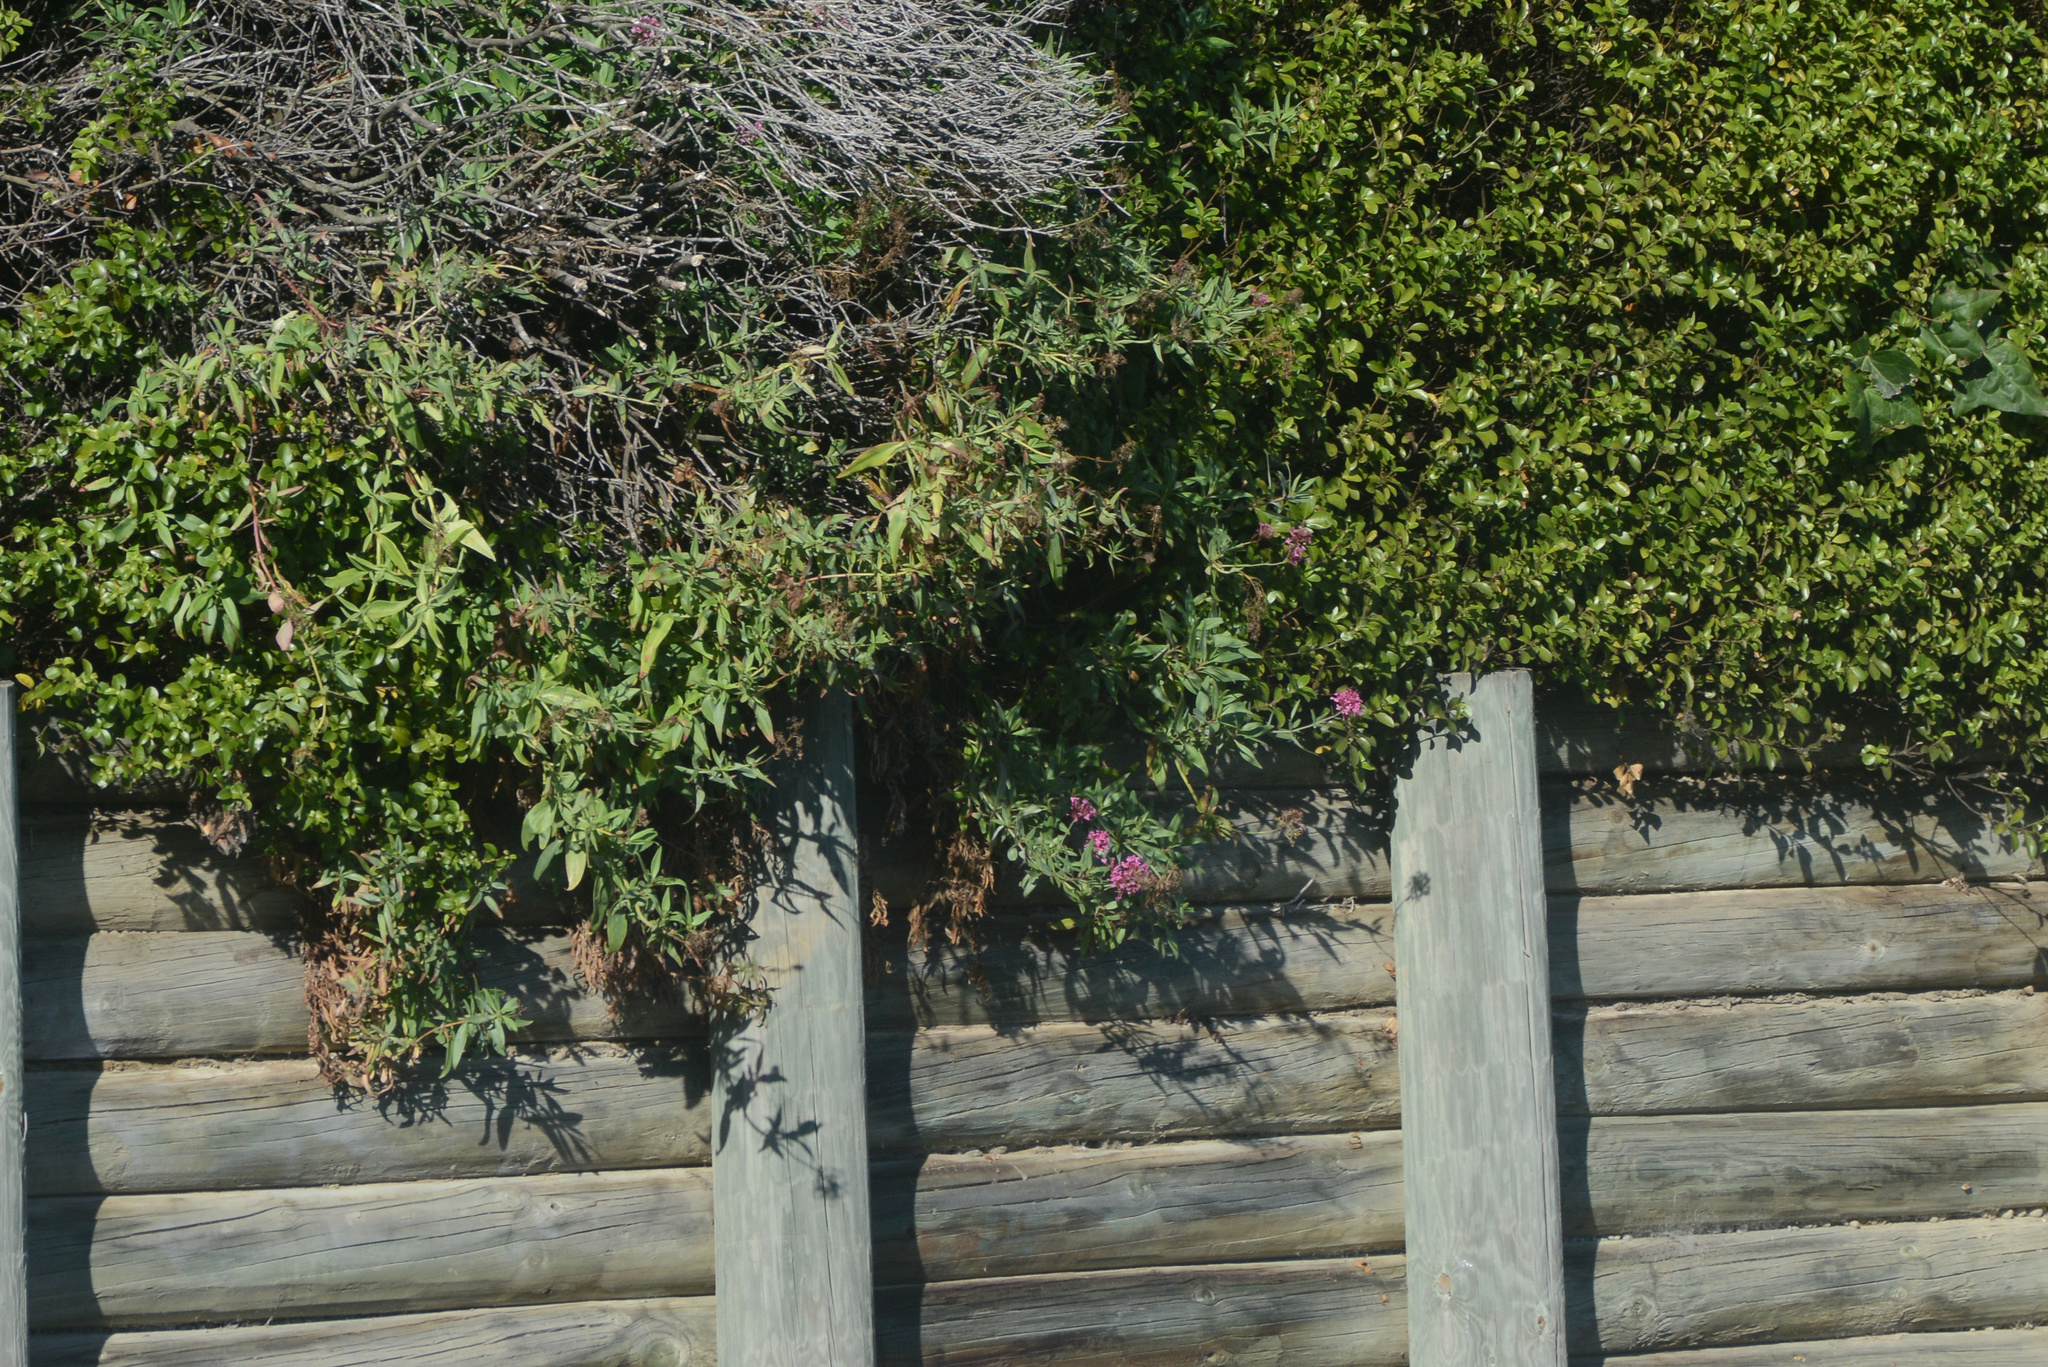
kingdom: Plantae
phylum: Tracheophyta
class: Magnoliopsida
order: Dipsacales
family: Caprifoliaceae
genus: Centranthus
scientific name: Centranthus ruber
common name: Red valerian
